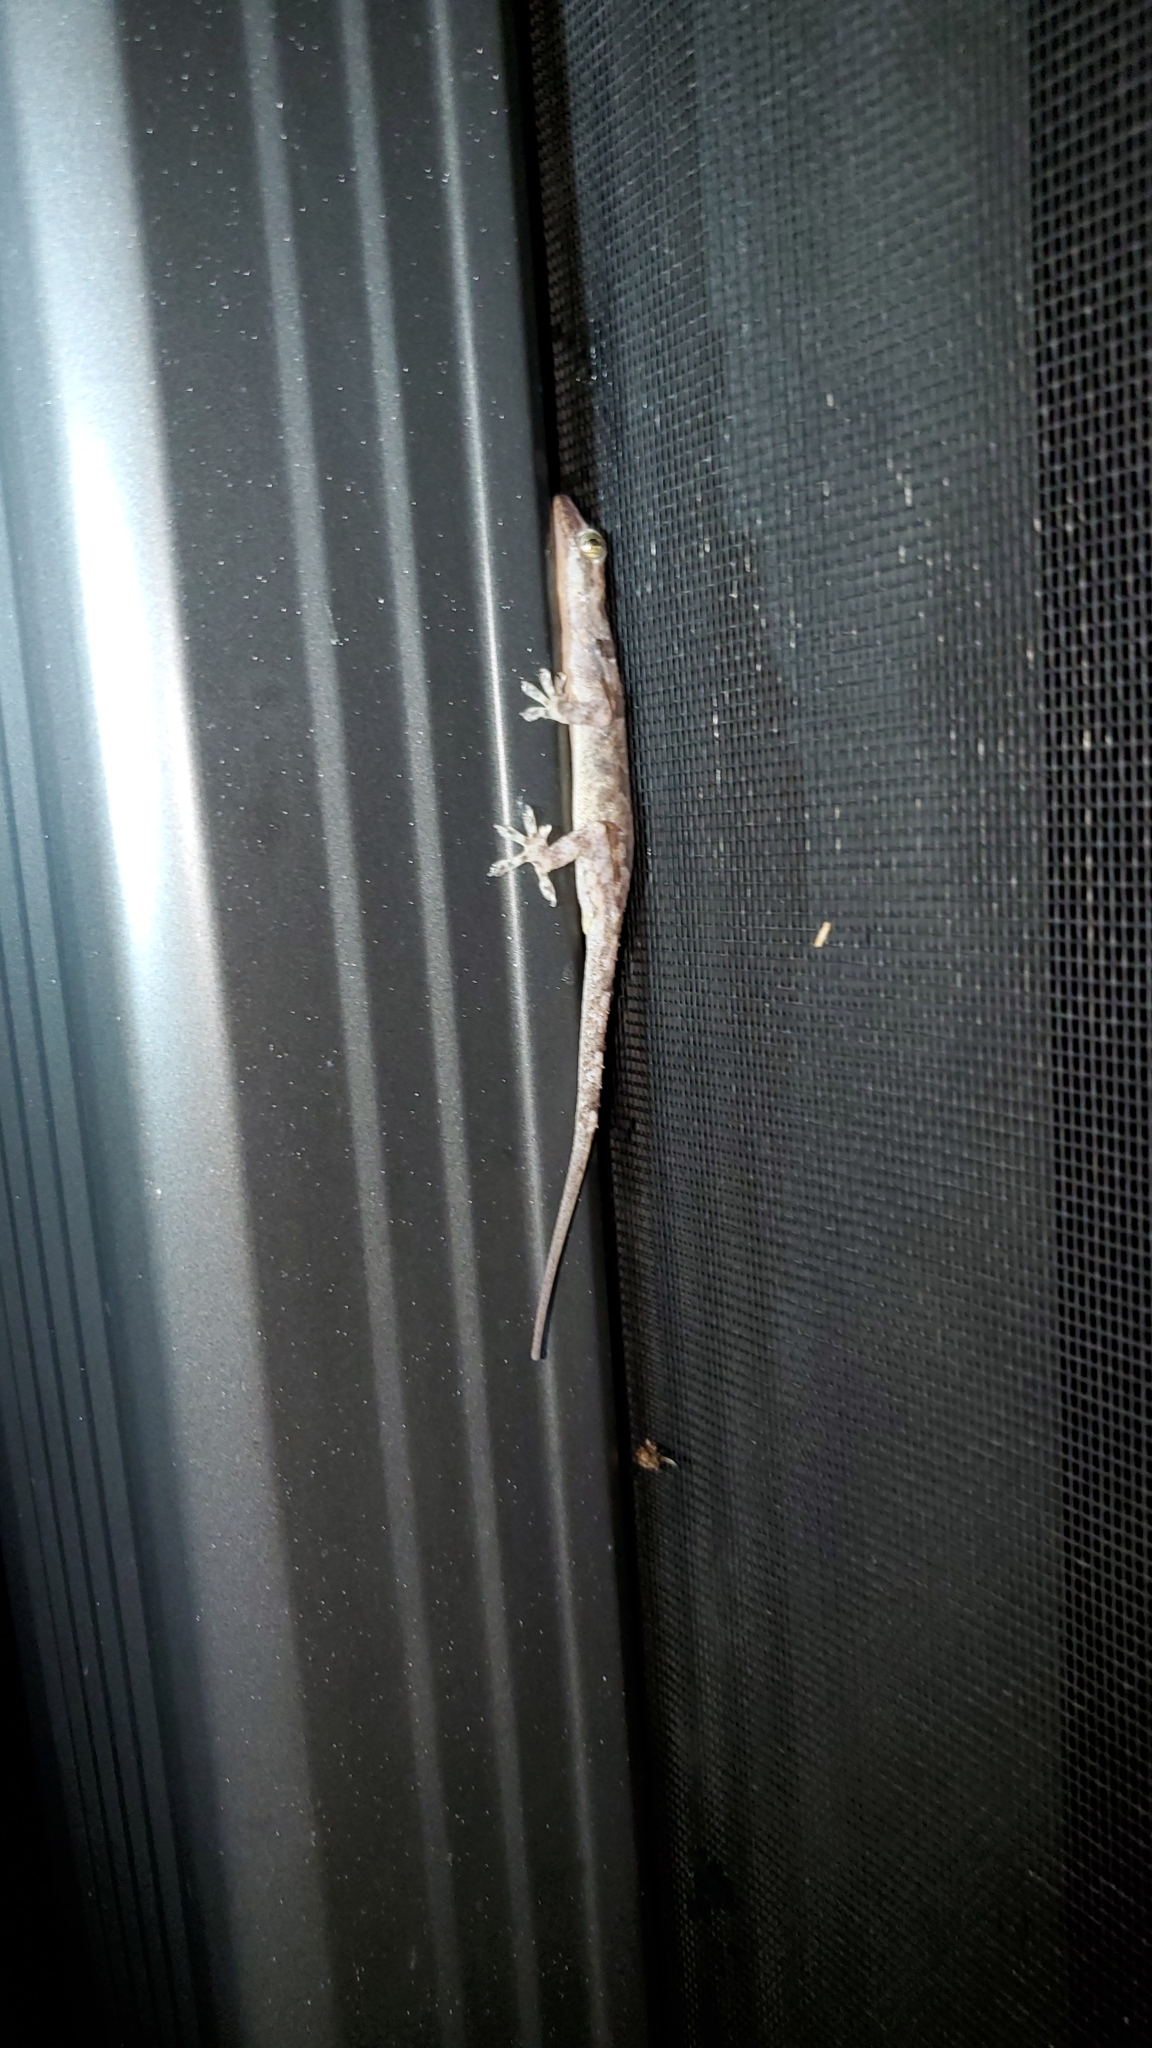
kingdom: Animalia
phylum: Chordata
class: Squamata
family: Gekkonidae
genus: Hemidactylus
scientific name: Hemidactylus mabouia
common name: House gecko
